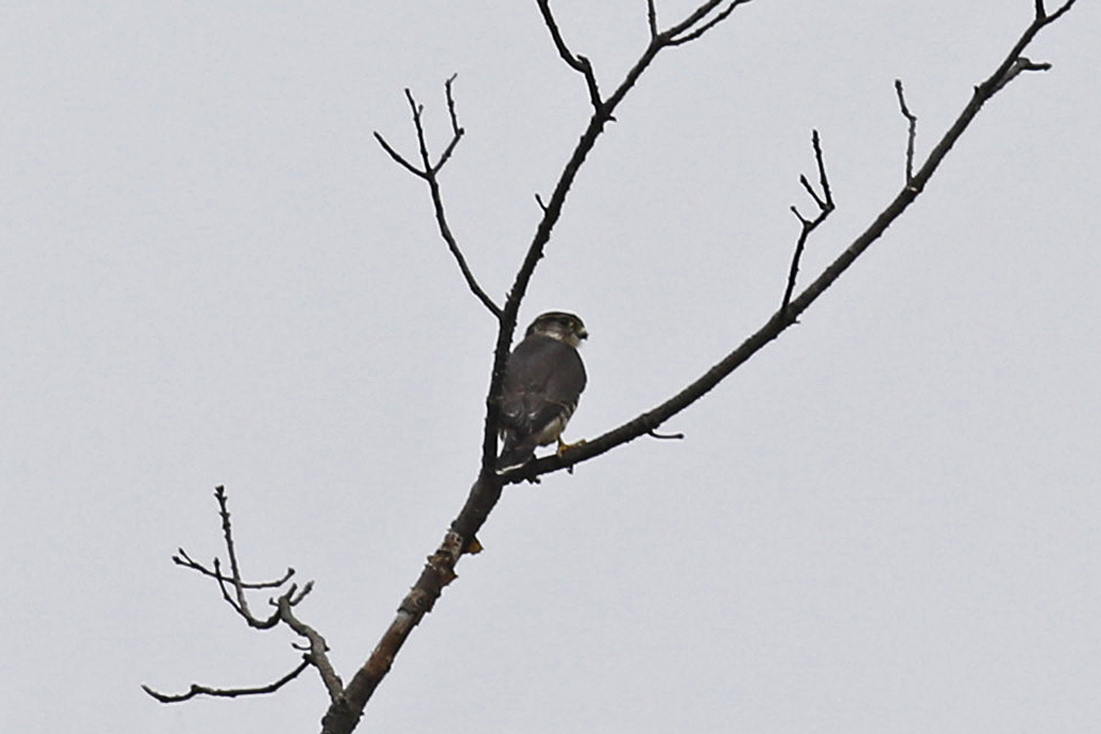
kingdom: Animalia
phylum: Chordata
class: Aves
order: Falconiformes
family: Falconidae
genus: Falco
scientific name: Falco columbarius
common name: Merlin
